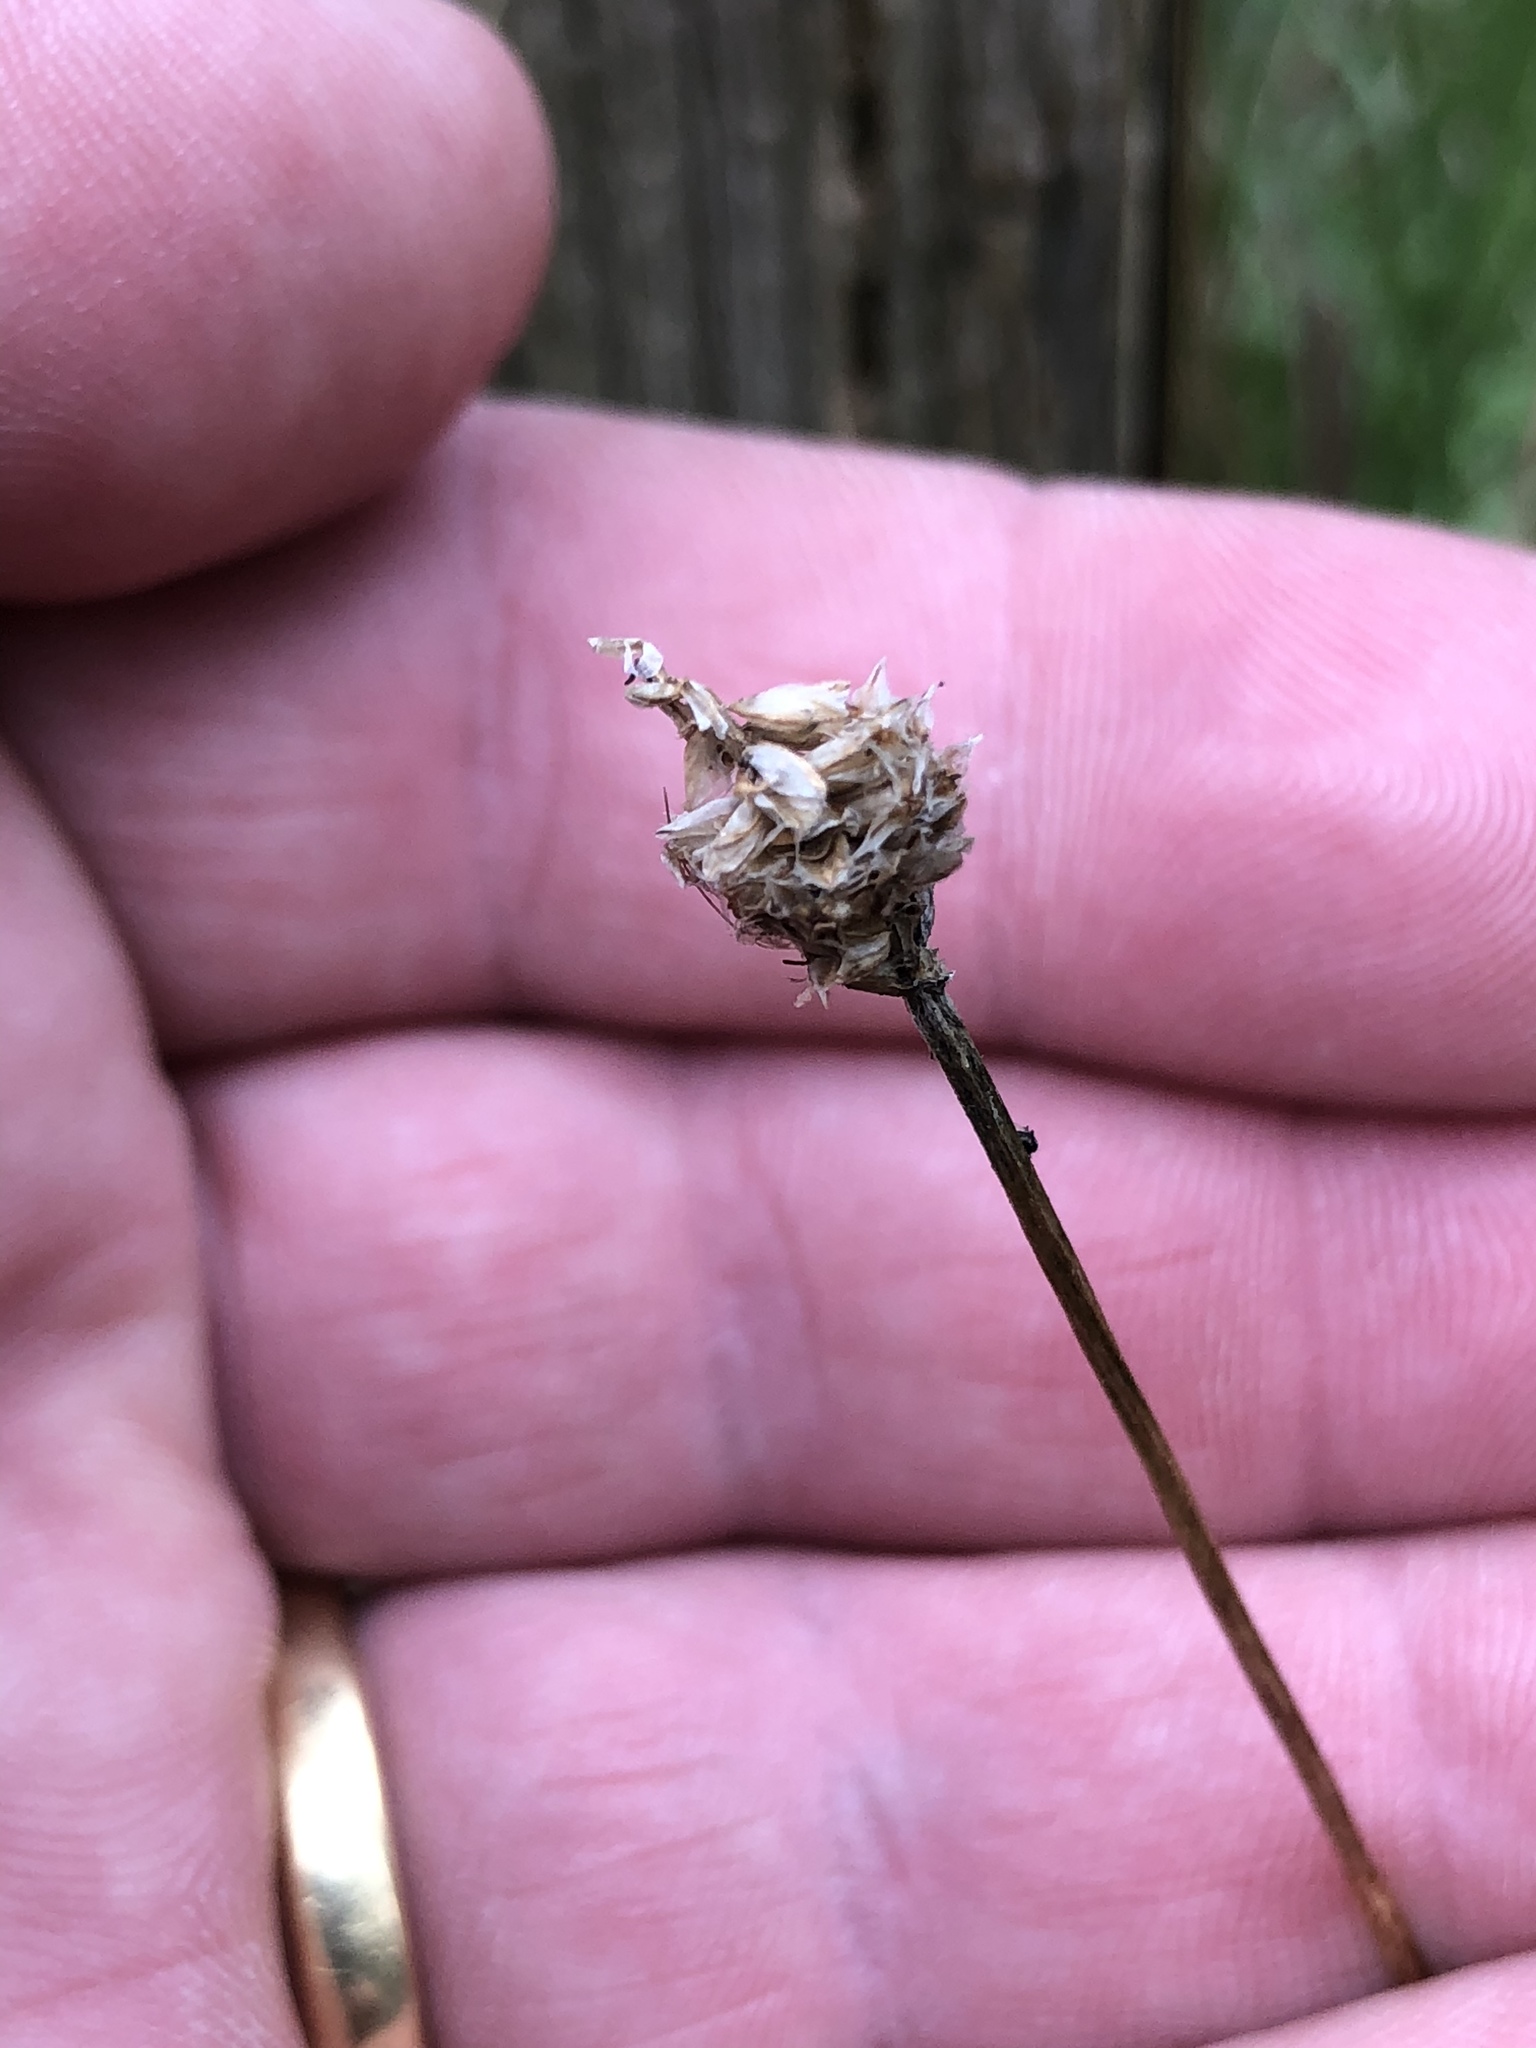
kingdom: Plantae
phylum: Tracheophyta
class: Magnoliopsida
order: Lamiales
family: Plantaginaceae
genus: Plantago
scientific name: Plantago lanceolata
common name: Ribwort plantain
